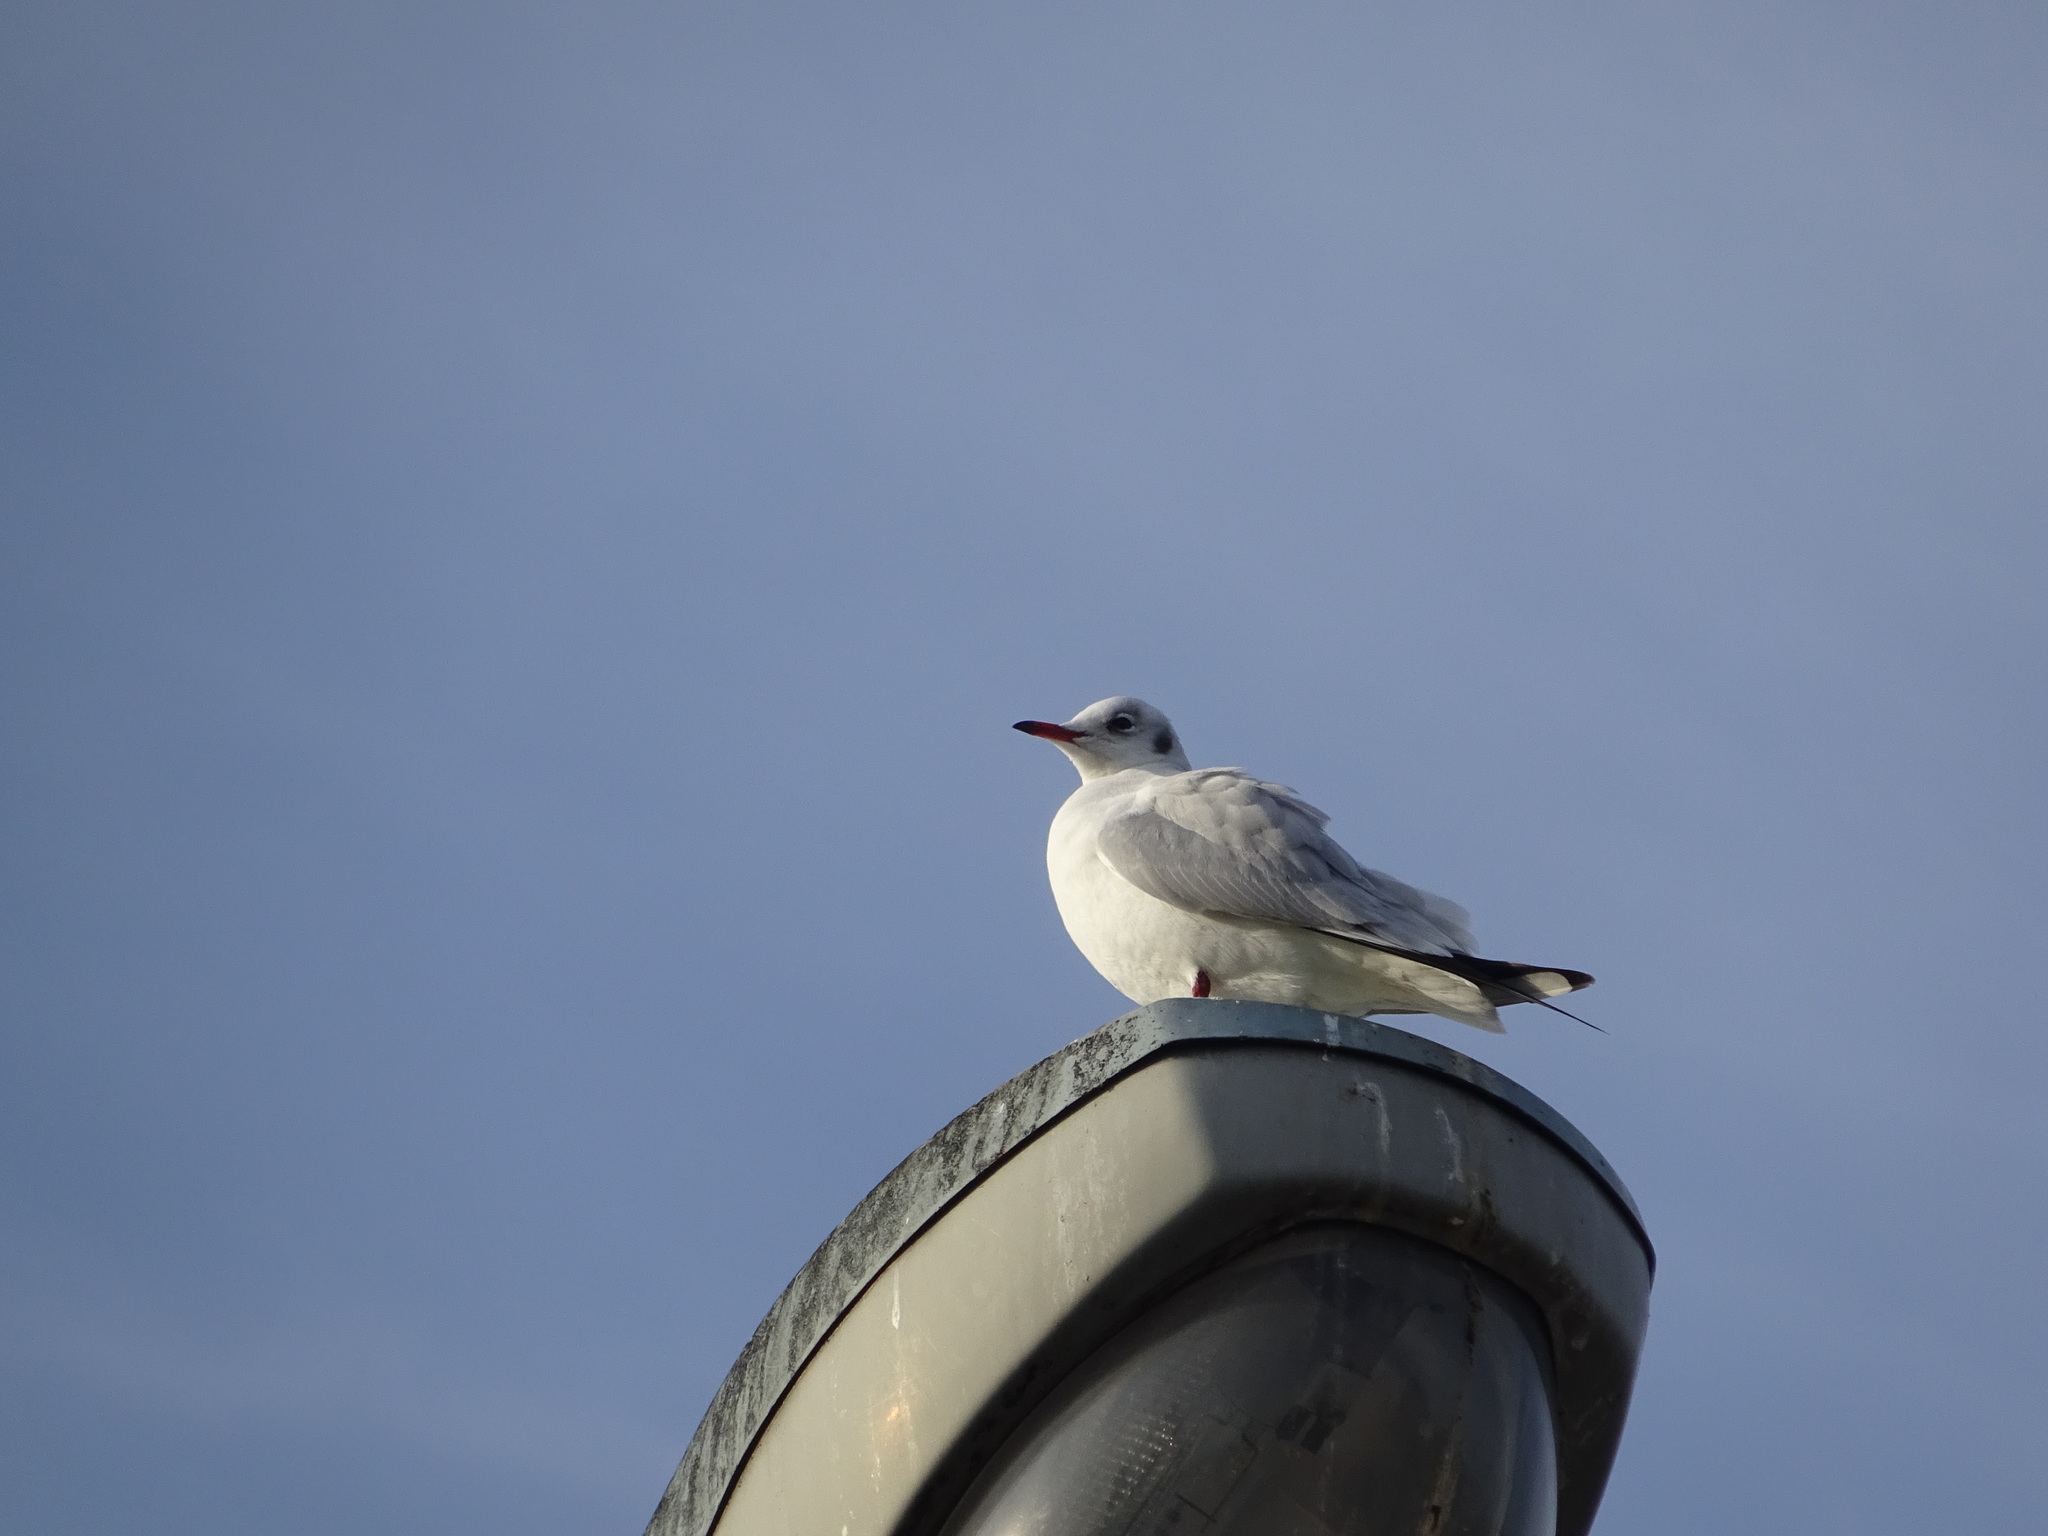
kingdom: Animalia
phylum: Chordata
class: Aves
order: Charadriiformes
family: Laridae
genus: Chroicocephalus
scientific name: Chroicocephalus ridibundus
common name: Black-headed gull
